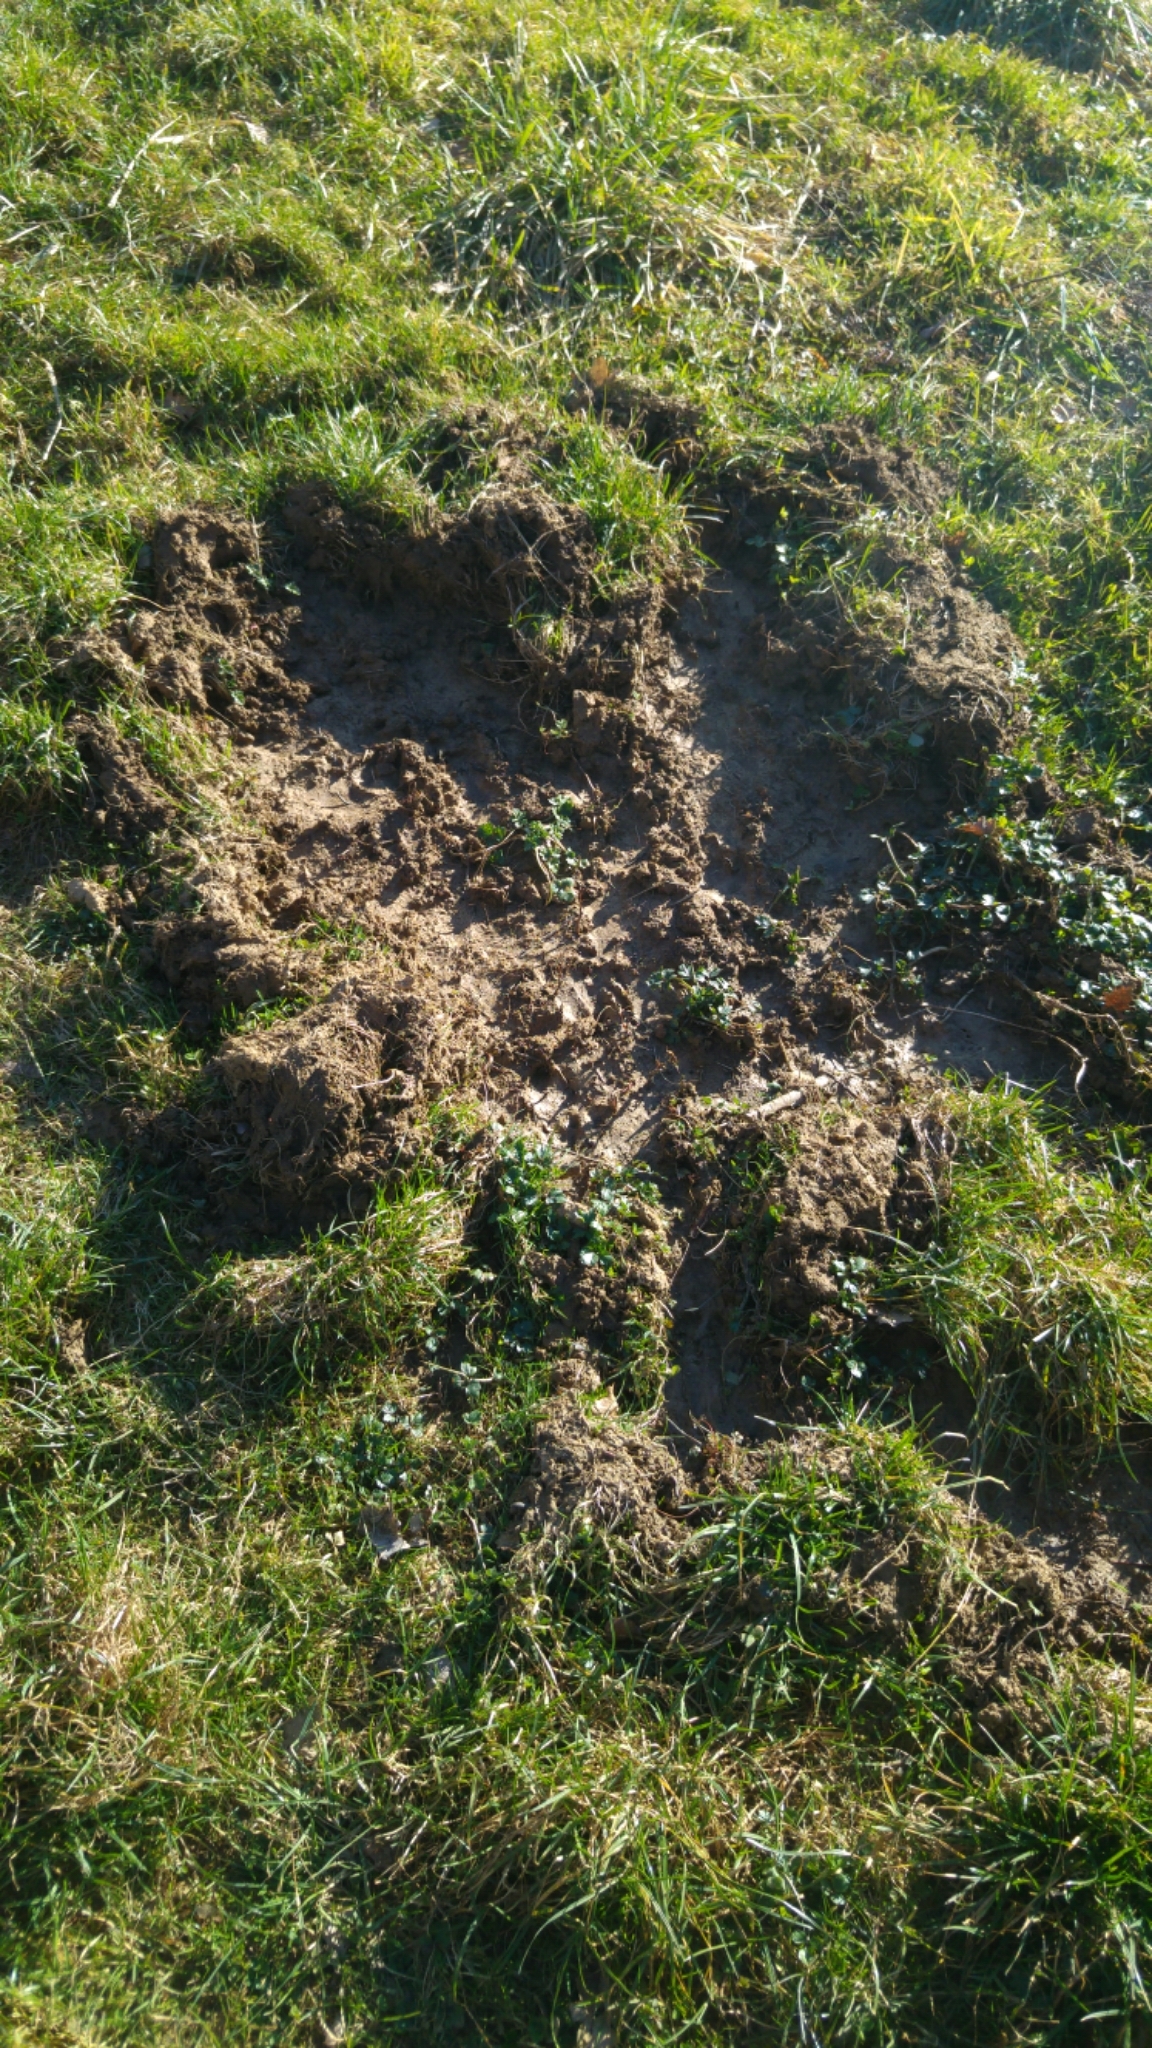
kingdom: Animalia
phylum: Chordata
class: Mammalia
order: Artiodactyla
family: Suidae
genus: Sus
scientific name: Sus scrofa
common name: Wild boar
